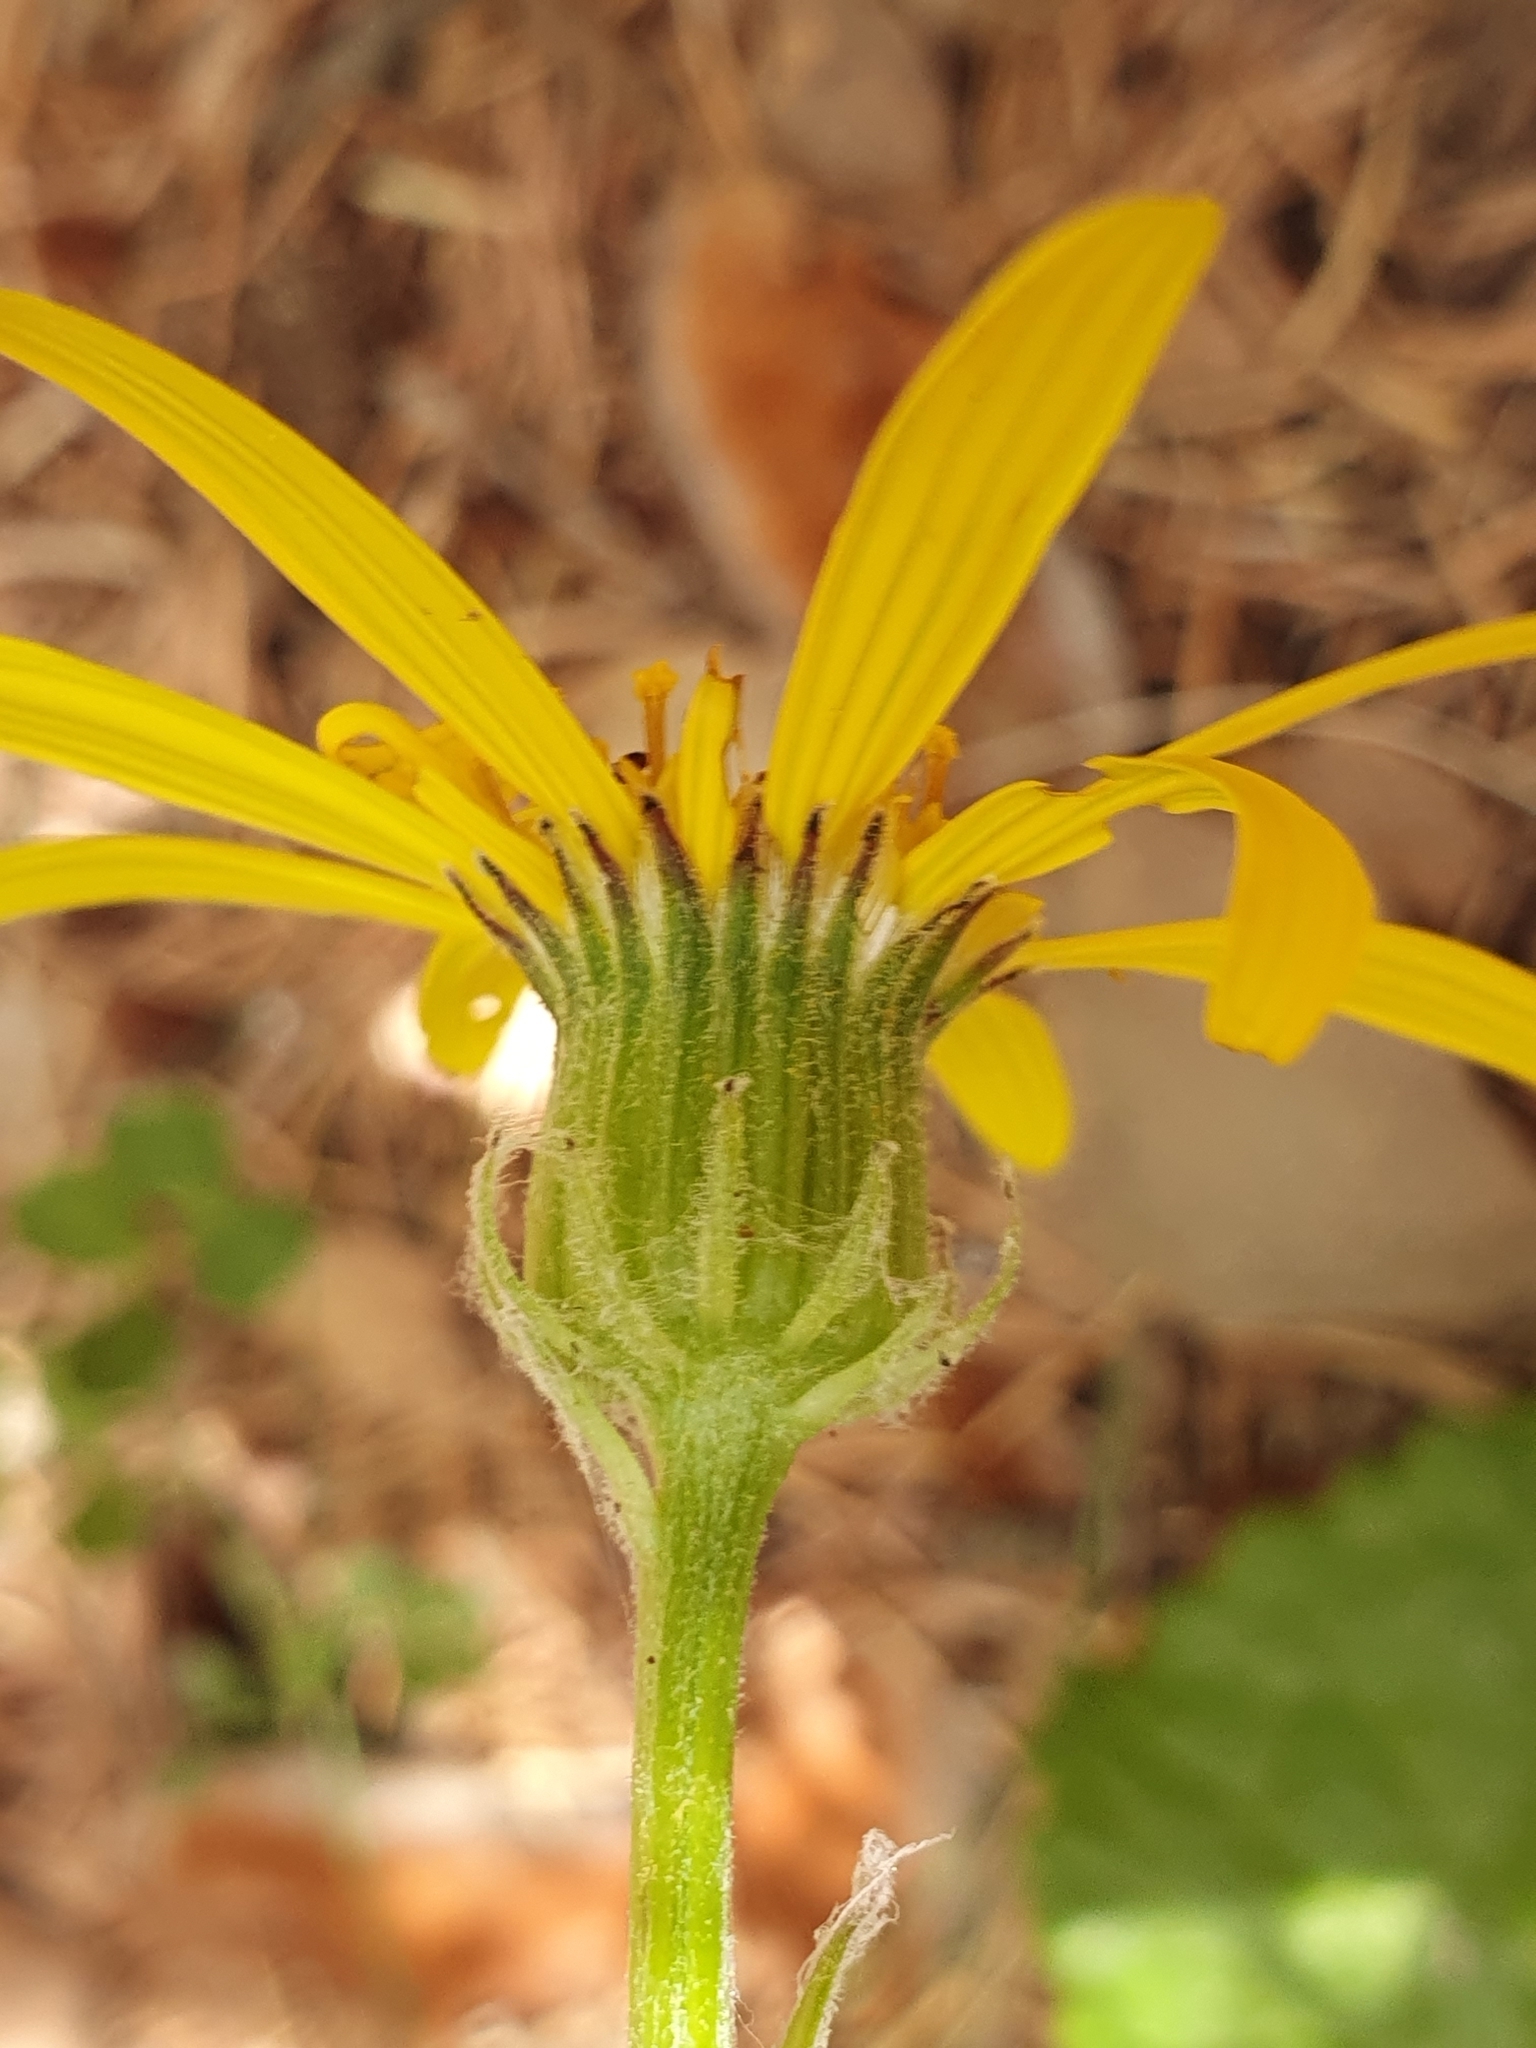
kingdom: Plantae
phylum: Tracheophyta
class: Magnoliopsida
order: Asterales
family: Asteraceae
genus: Senecio
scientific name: Senecio perralderianus
